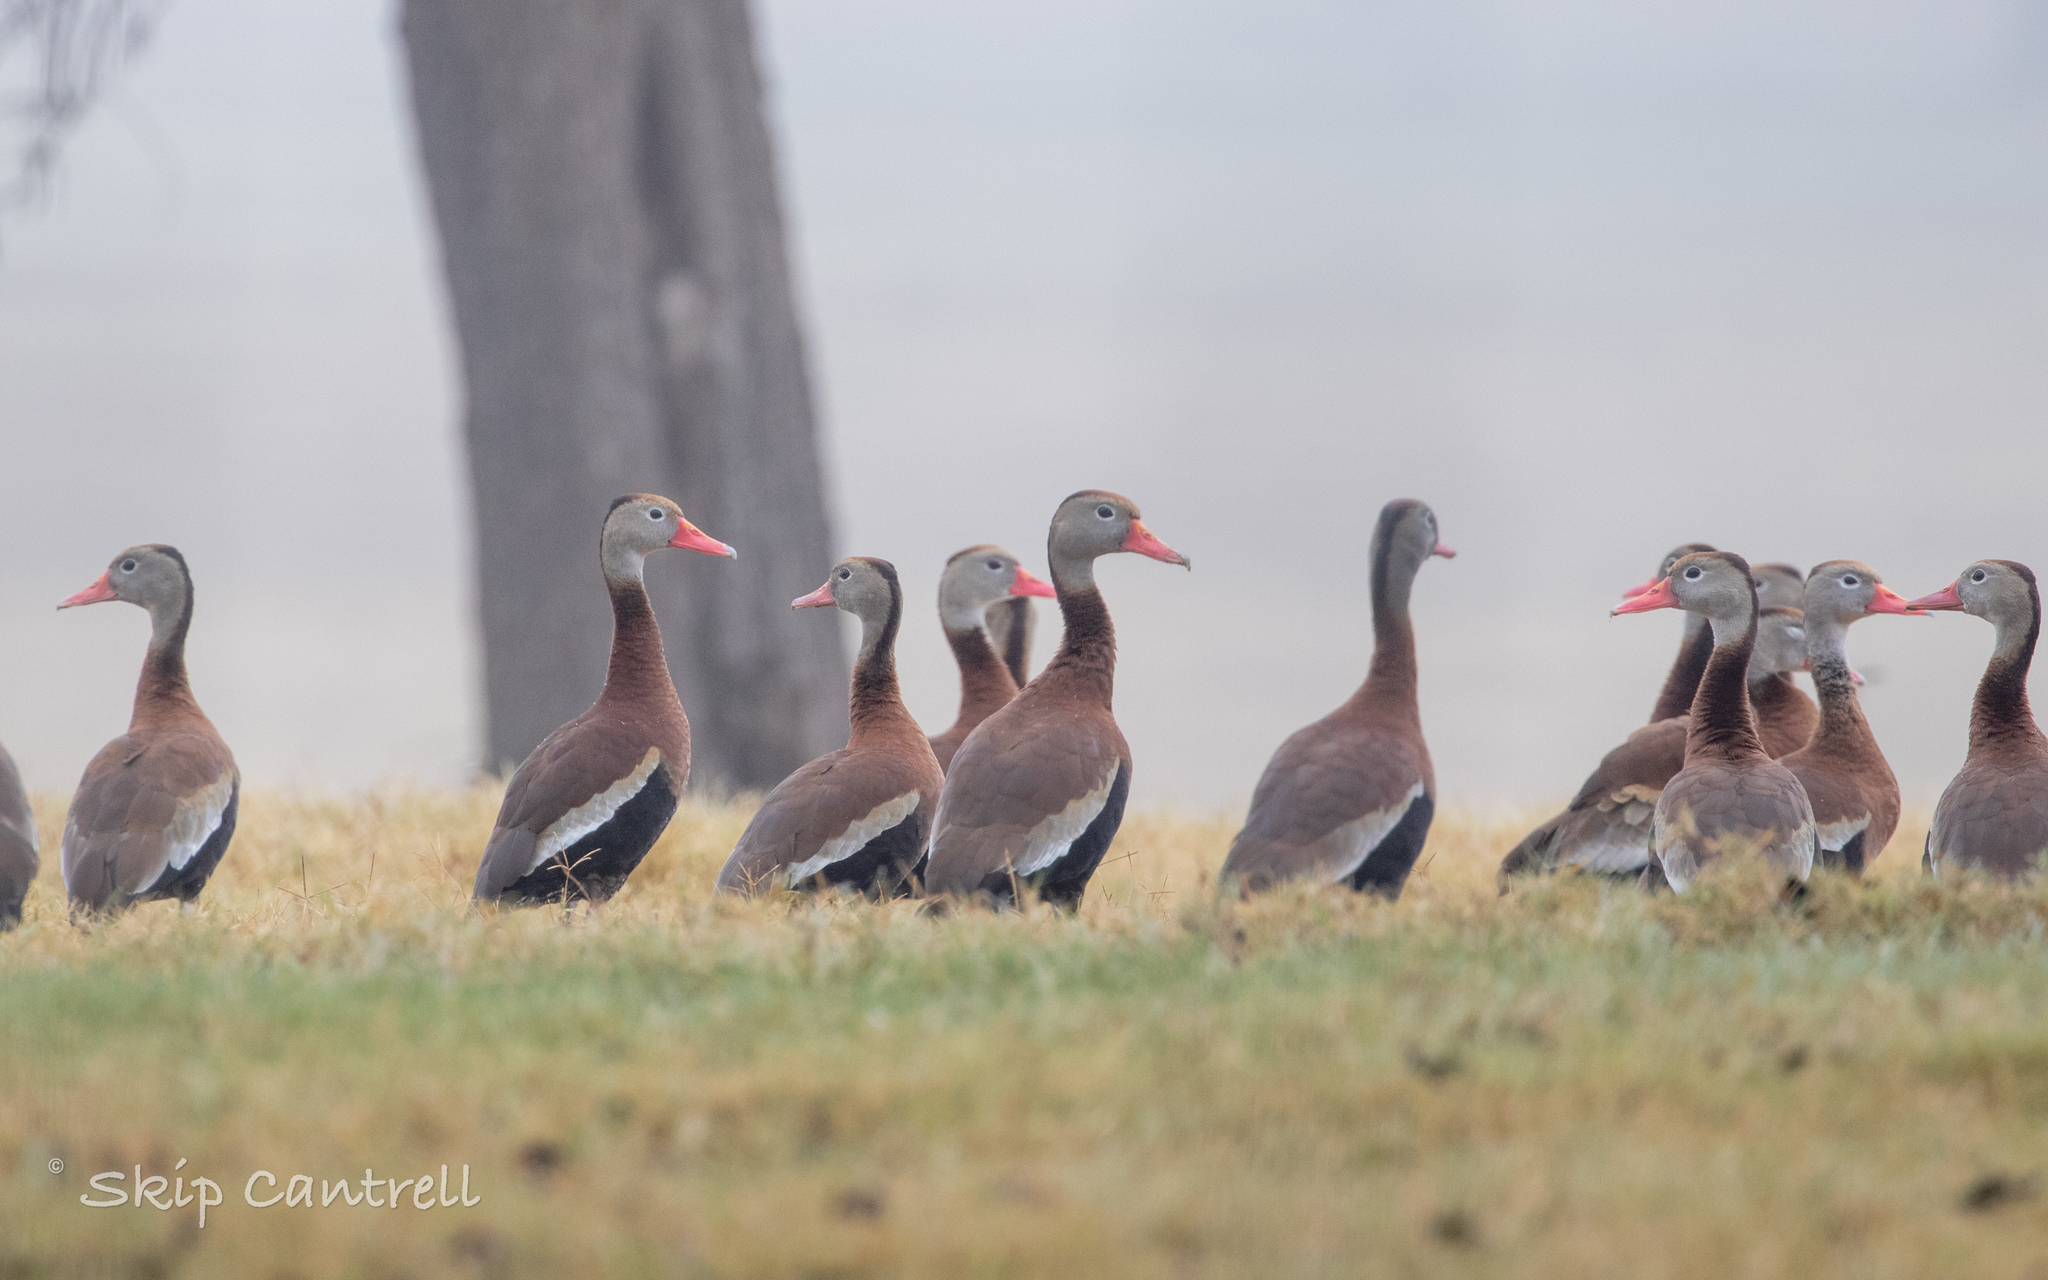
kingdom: Animalia
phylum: Chordata
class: Aves
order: Anseriformes
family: Anatidae
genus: Dendrocygna
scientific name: Dendrocygna autumnalis
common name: Black-bellied whistling duck
